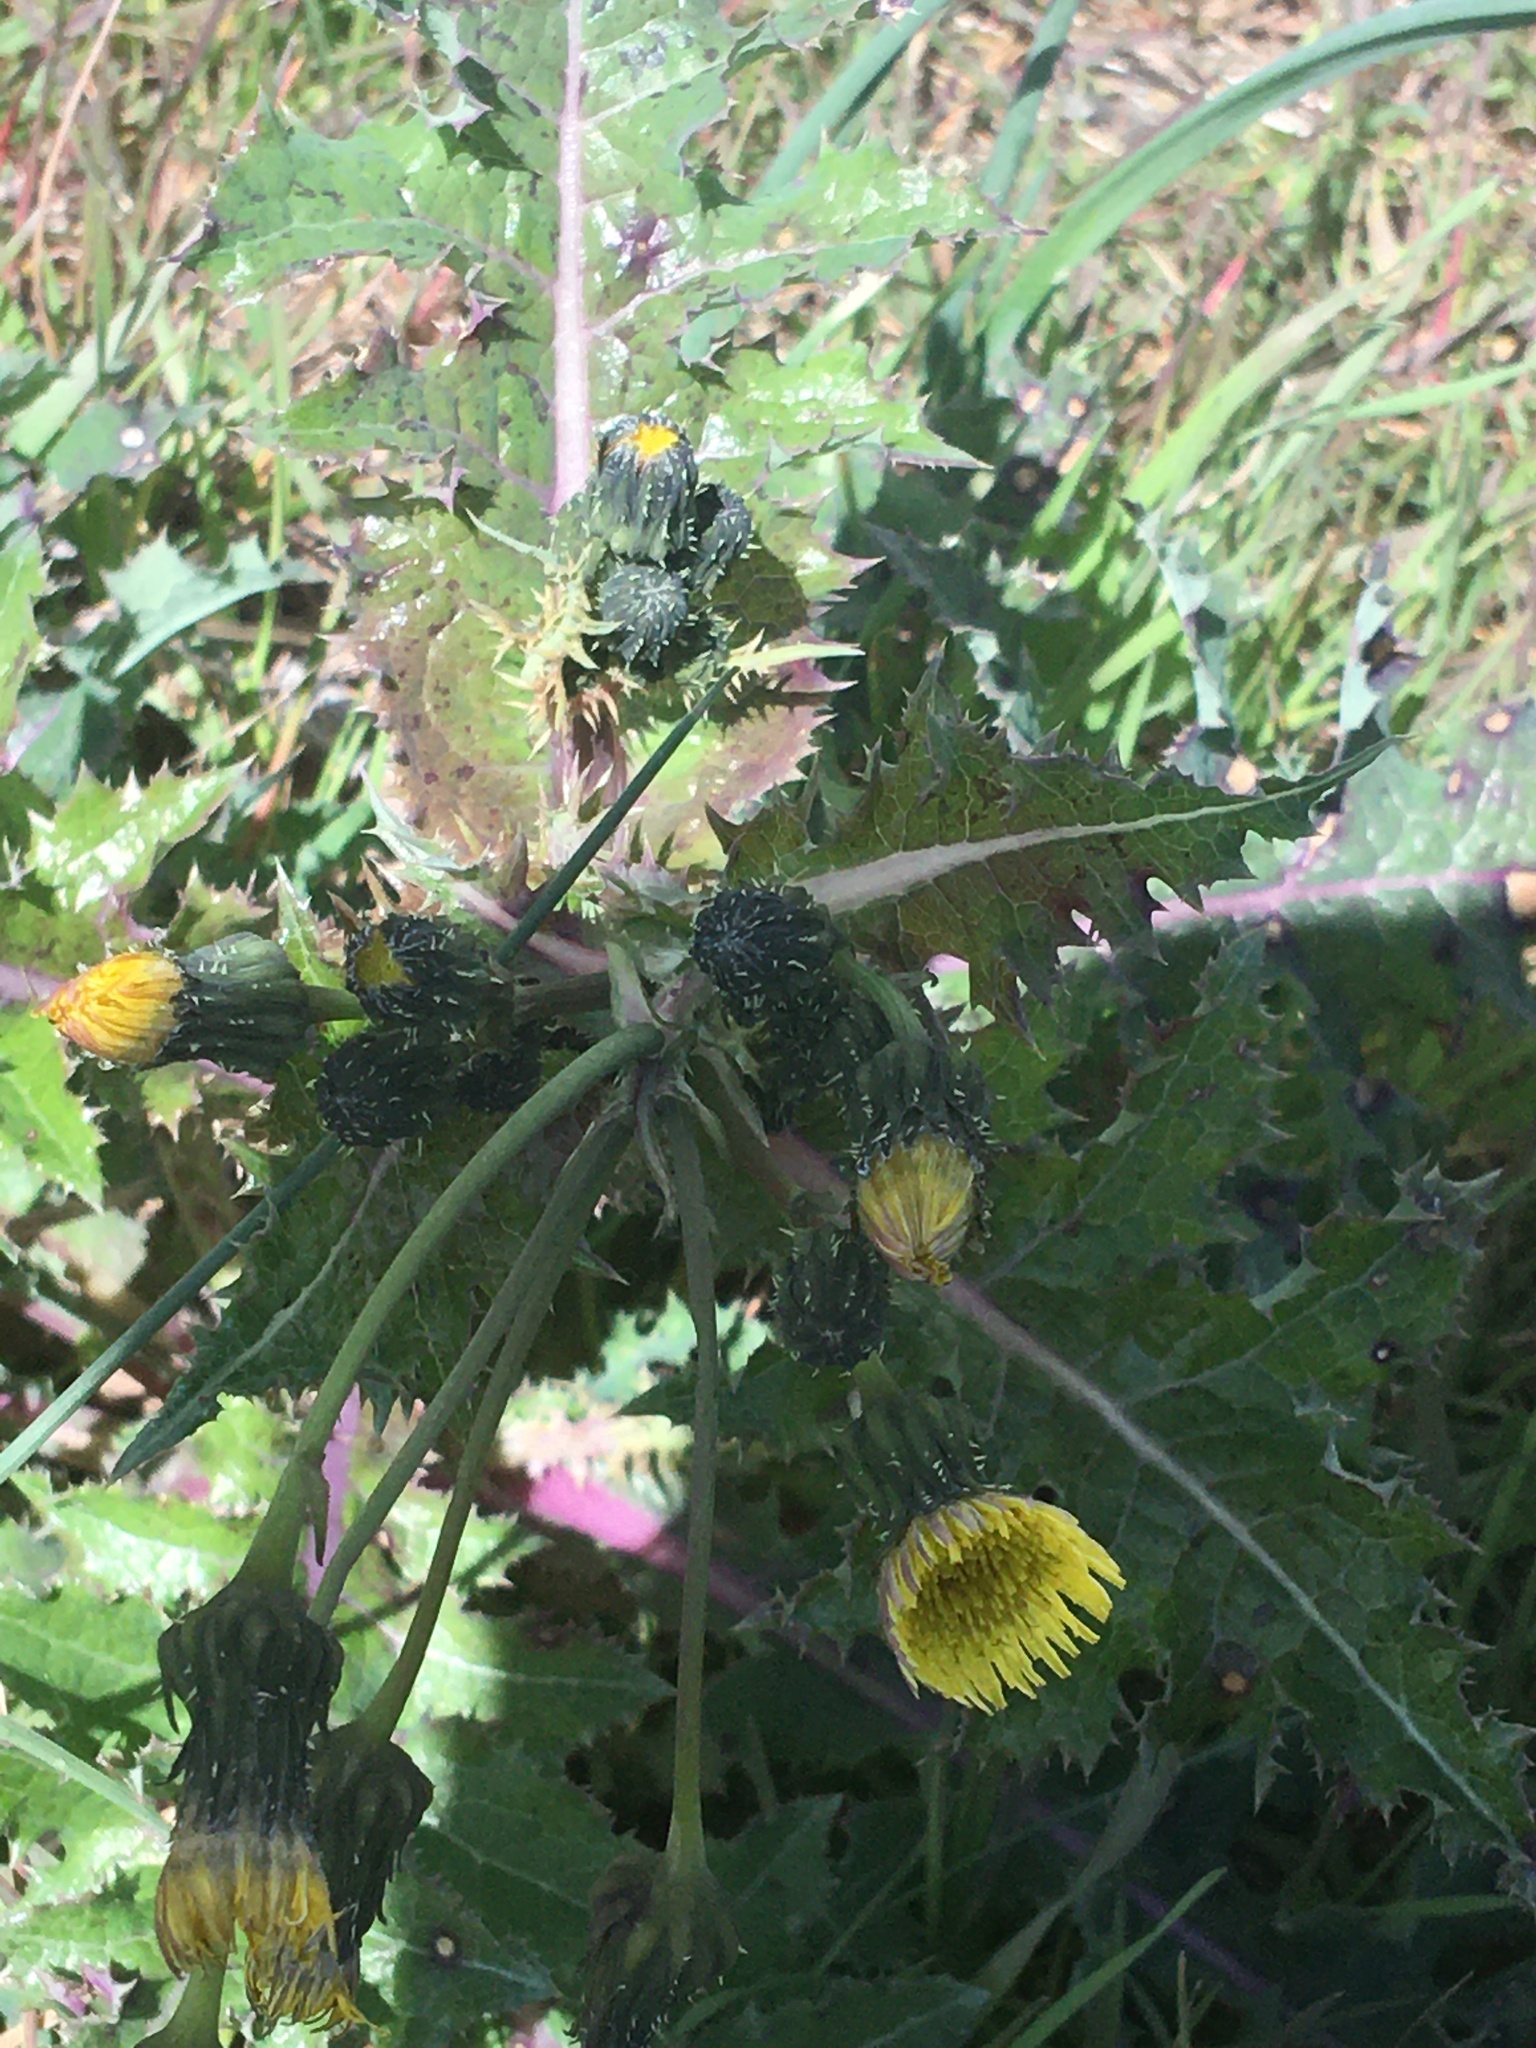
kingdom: Plantae
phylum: Tracheophyta
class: Magnoliopsida
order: Asterales
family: Asteraceae
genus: Sonchus
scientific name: Sonchus asper
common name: Prickly sow-thistle
